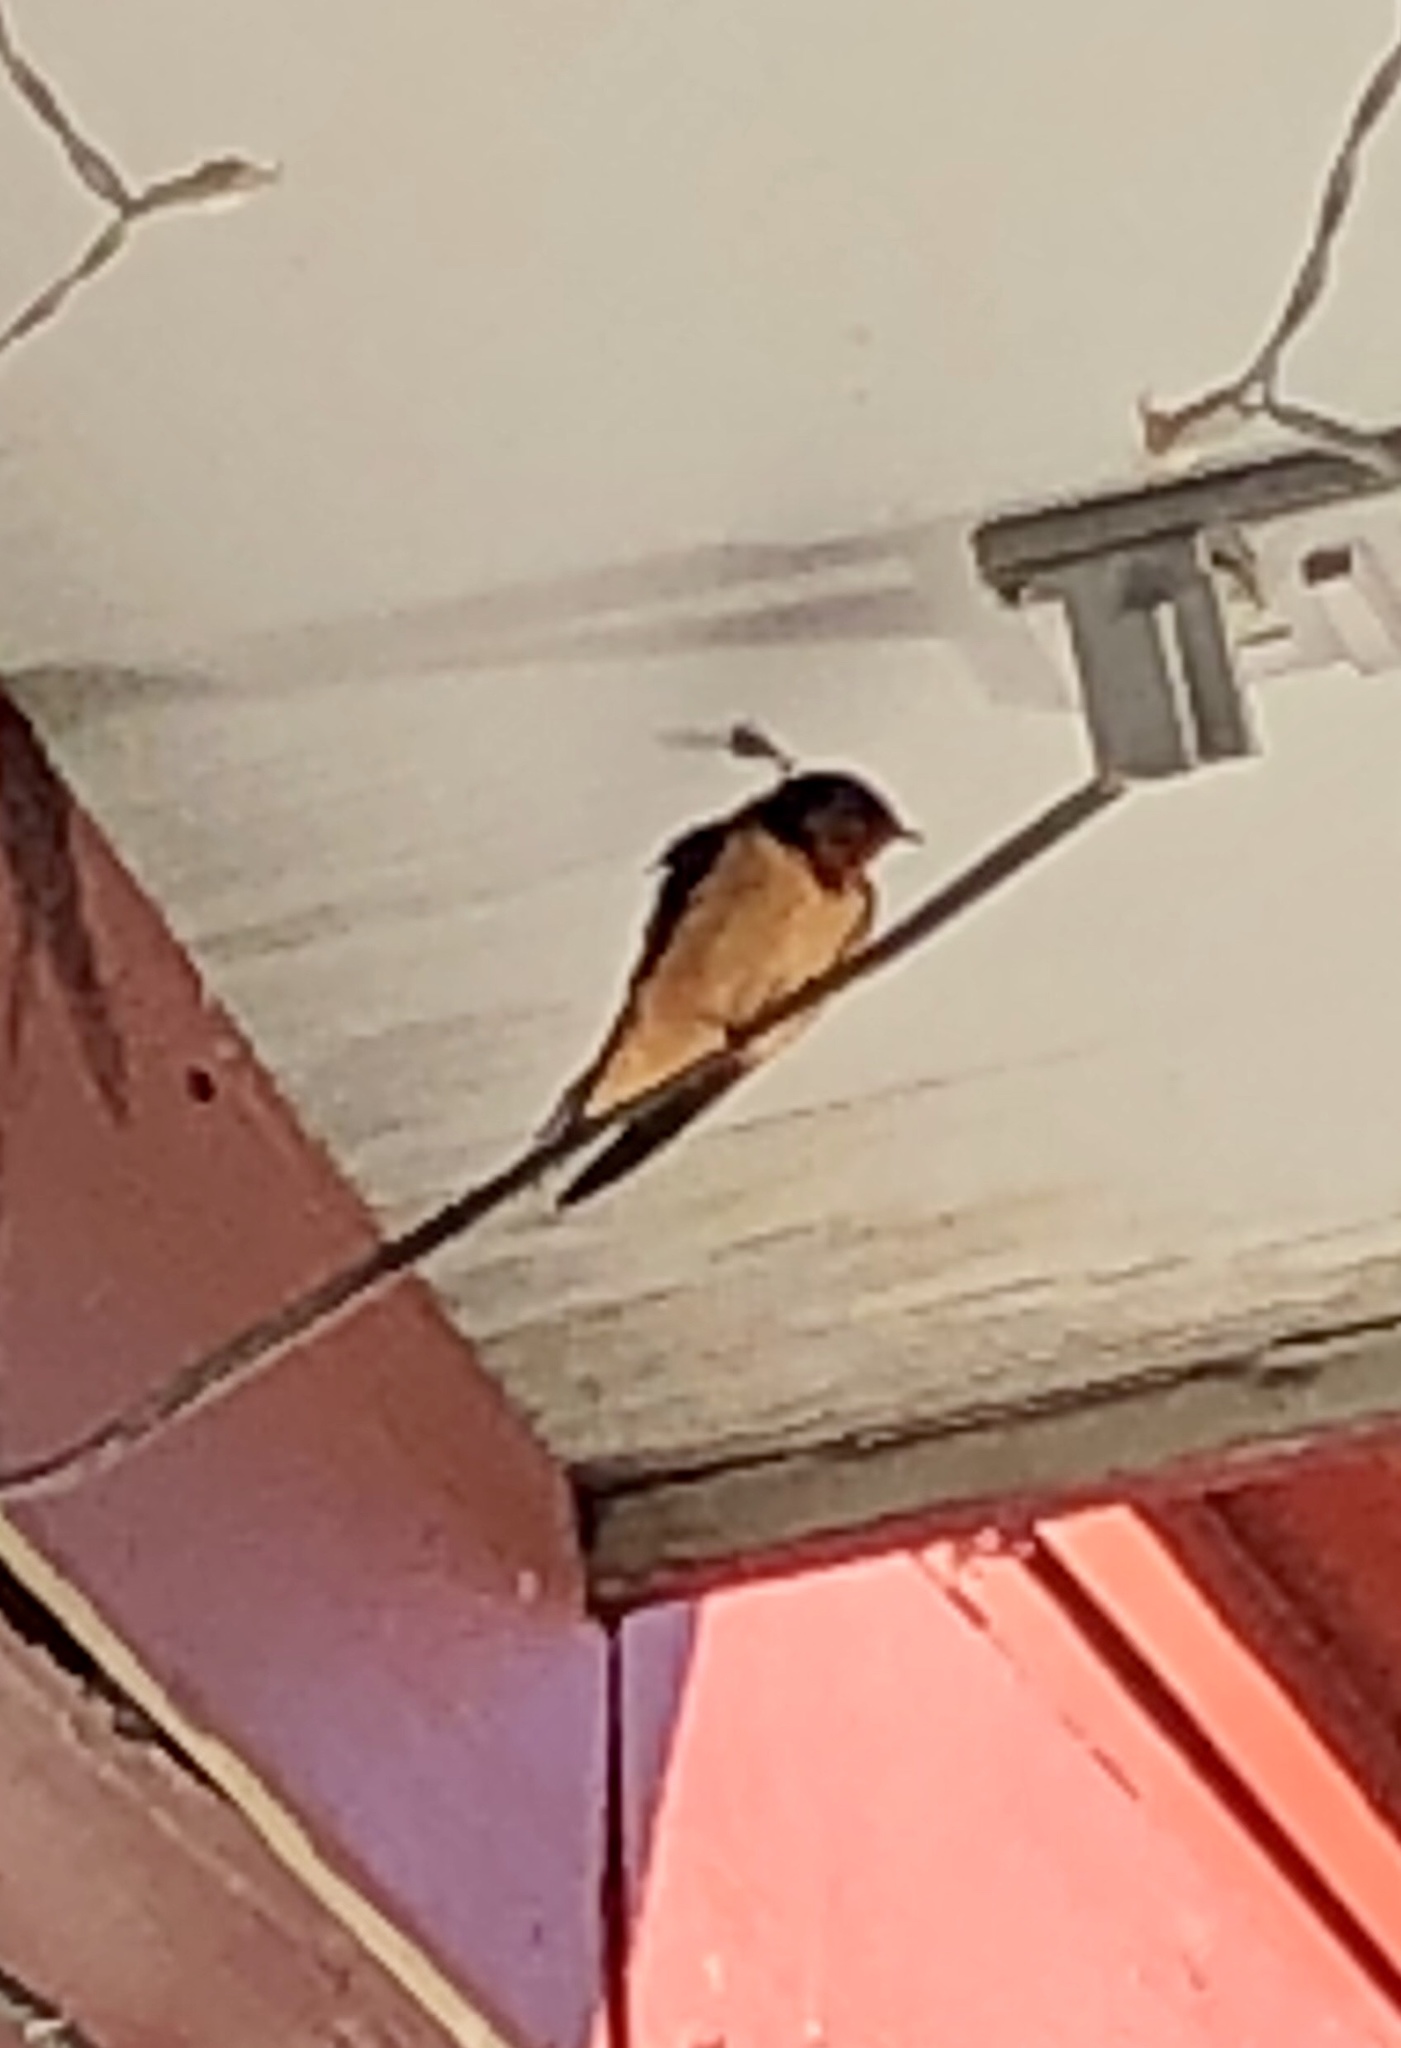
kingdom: Animalia
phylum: Chordata
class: Aves
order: Passeriformes
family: Hirundinidae
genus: Hirundo
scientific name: Hirundo rustica
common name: Barn swallow
